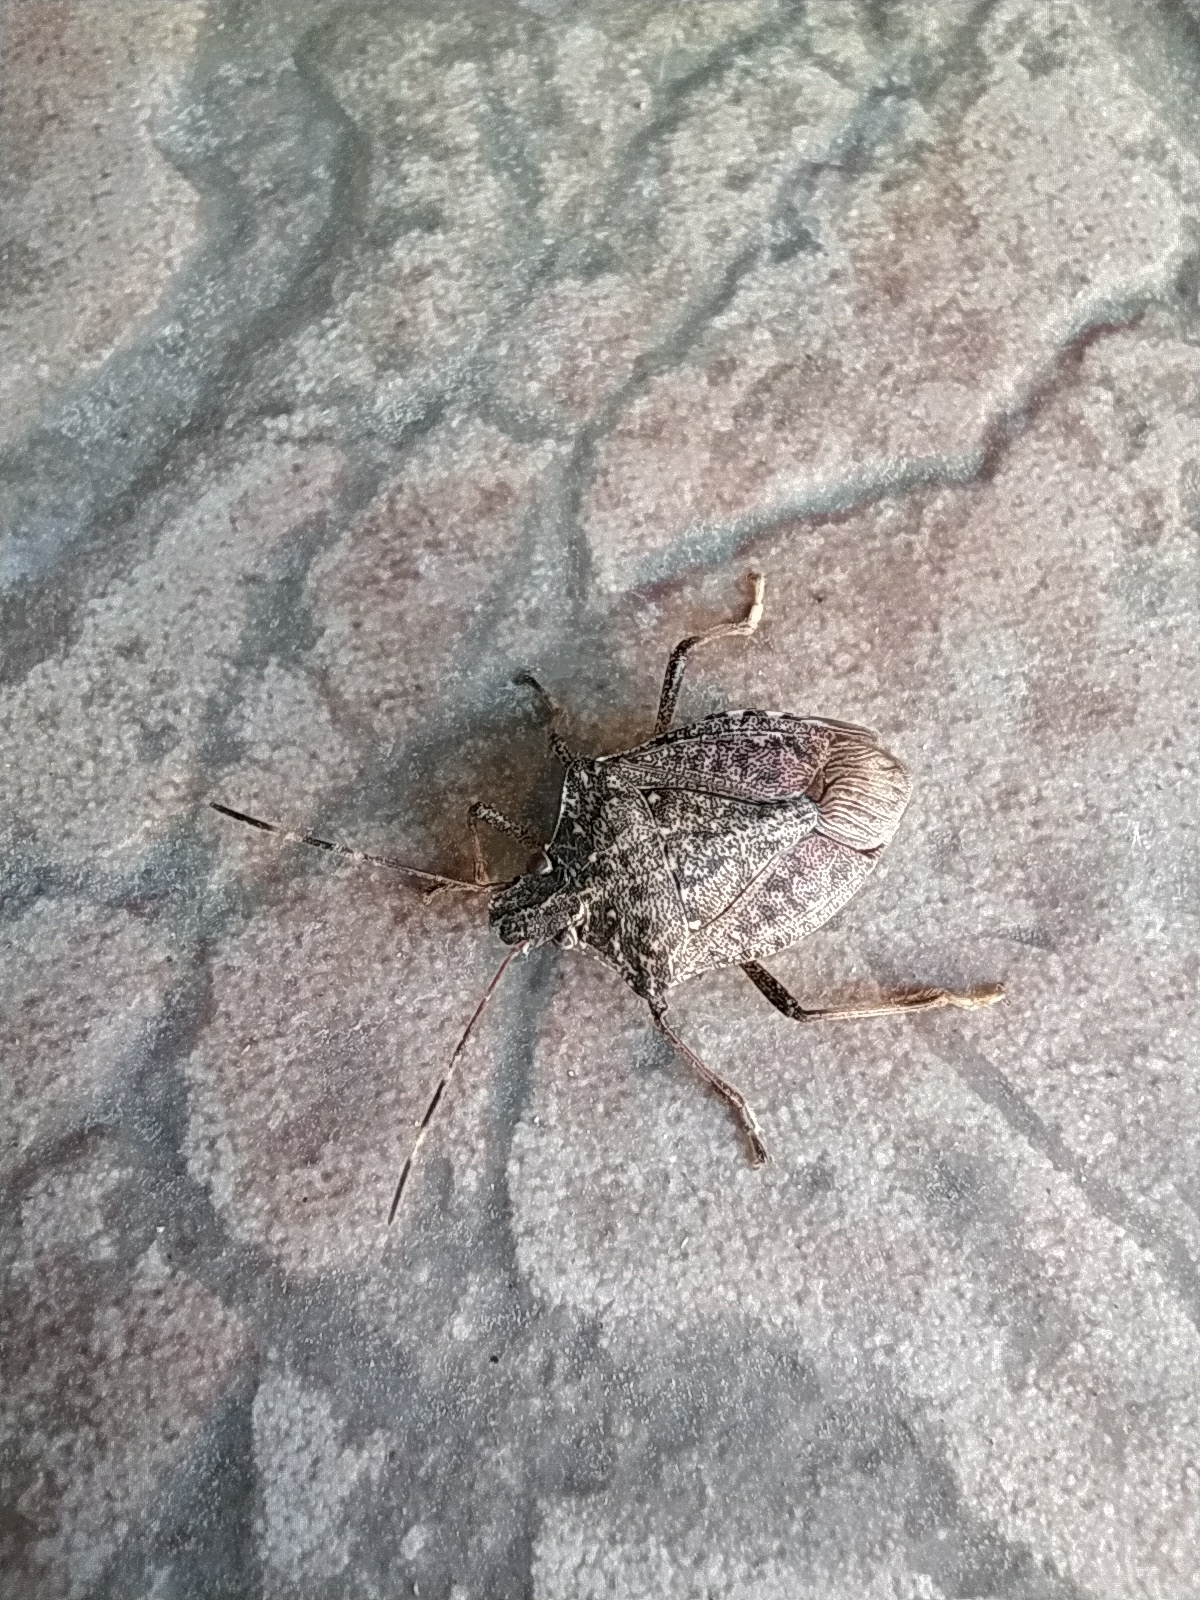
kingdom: Animalia
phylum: Arthropoda
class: Insecta
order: Hemiptera
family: Pentatomidae
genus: Halyomorpha
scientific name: Halyomorpha halys
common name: Brown marmorated stink bug
